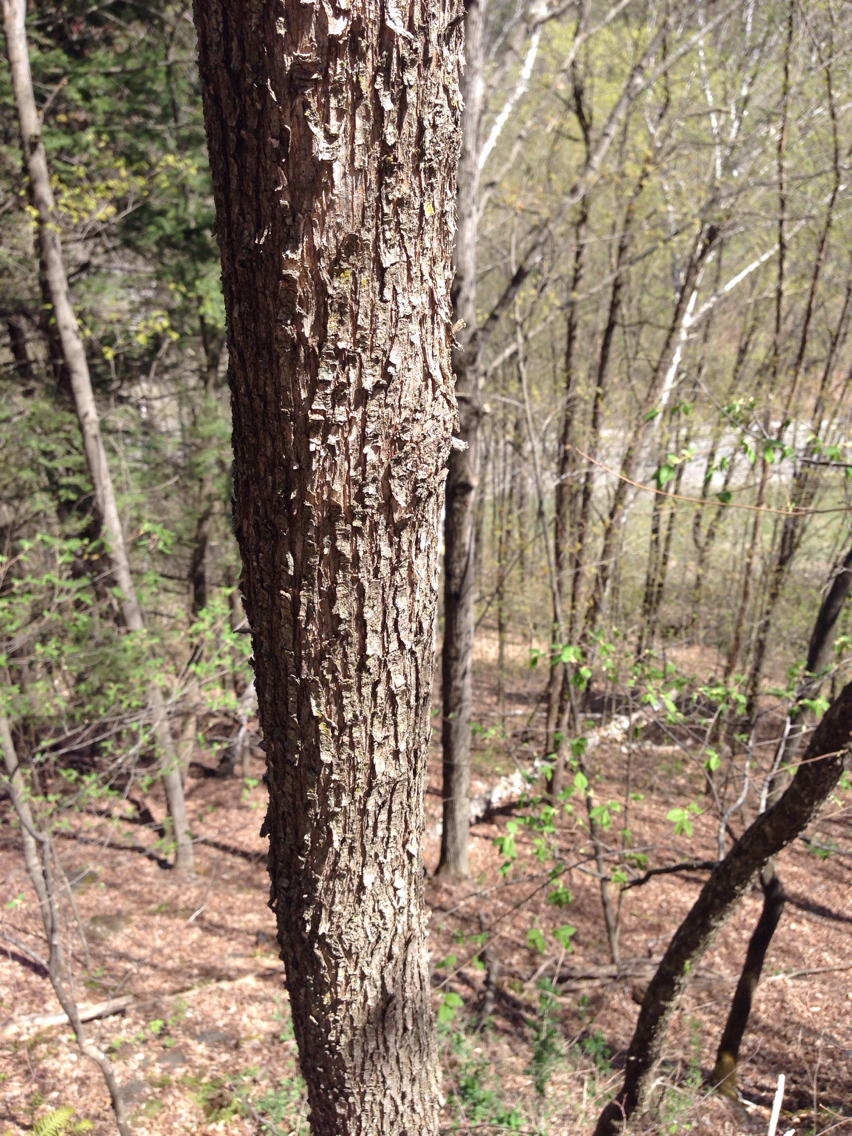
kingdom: Plantae
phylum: Tracheophyta
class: Magnoliopsida
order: Fagales
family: Betulaceae
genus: Ostrya
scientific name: Ostrya virginiana
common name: Ironwood
